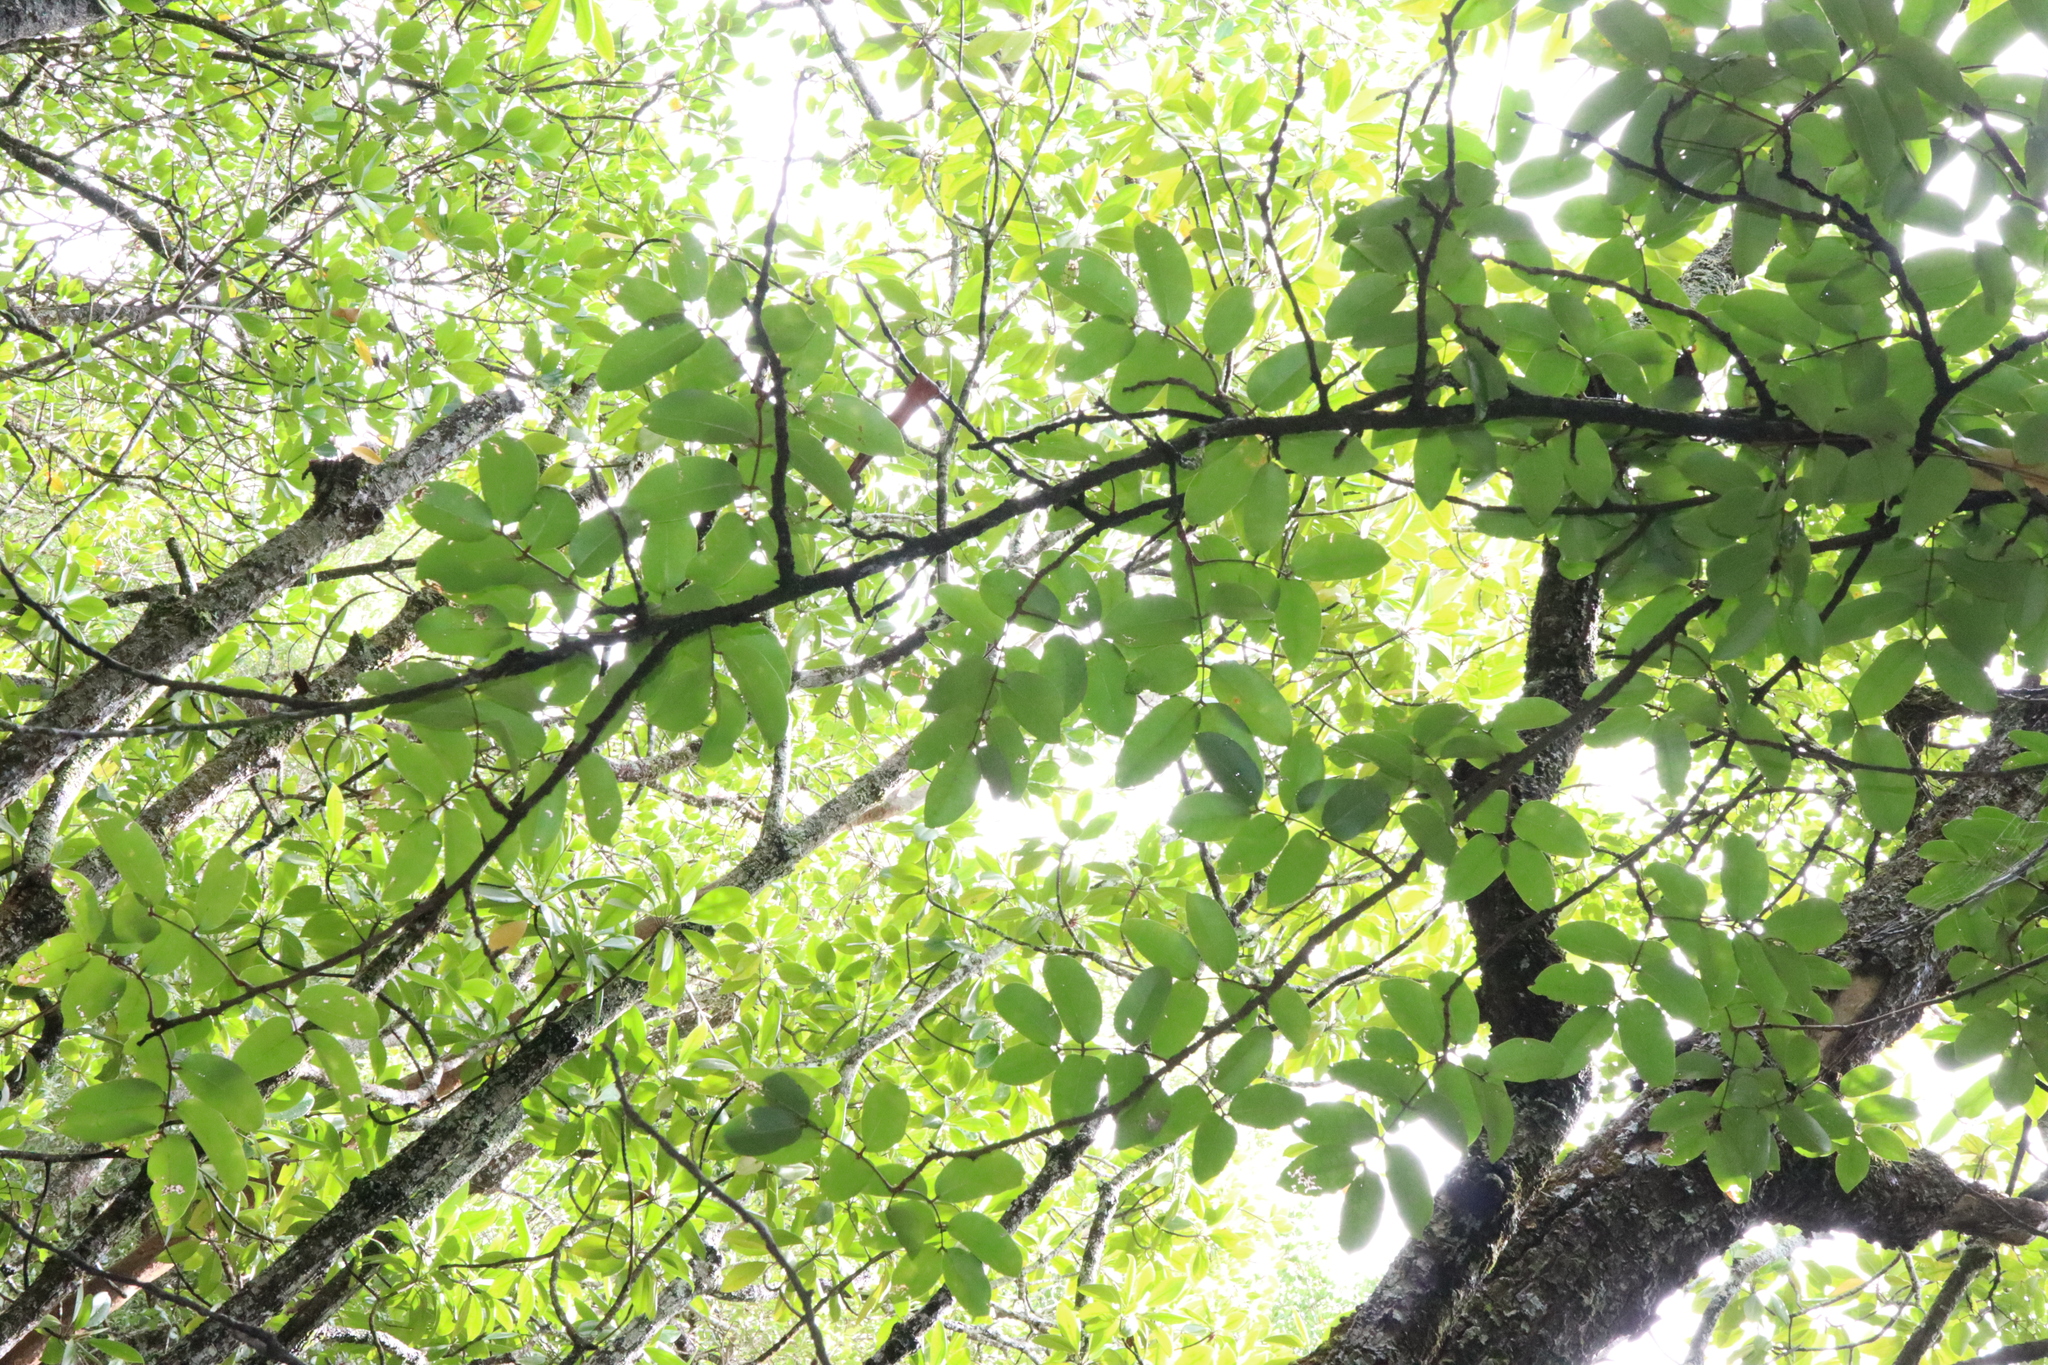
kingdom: Plantae
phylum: Tracheophyta
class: Magnoliopsida
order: Sapindales
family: Meliaceae
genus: Xylocarpus
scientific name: Xylocarpus moluccensis
